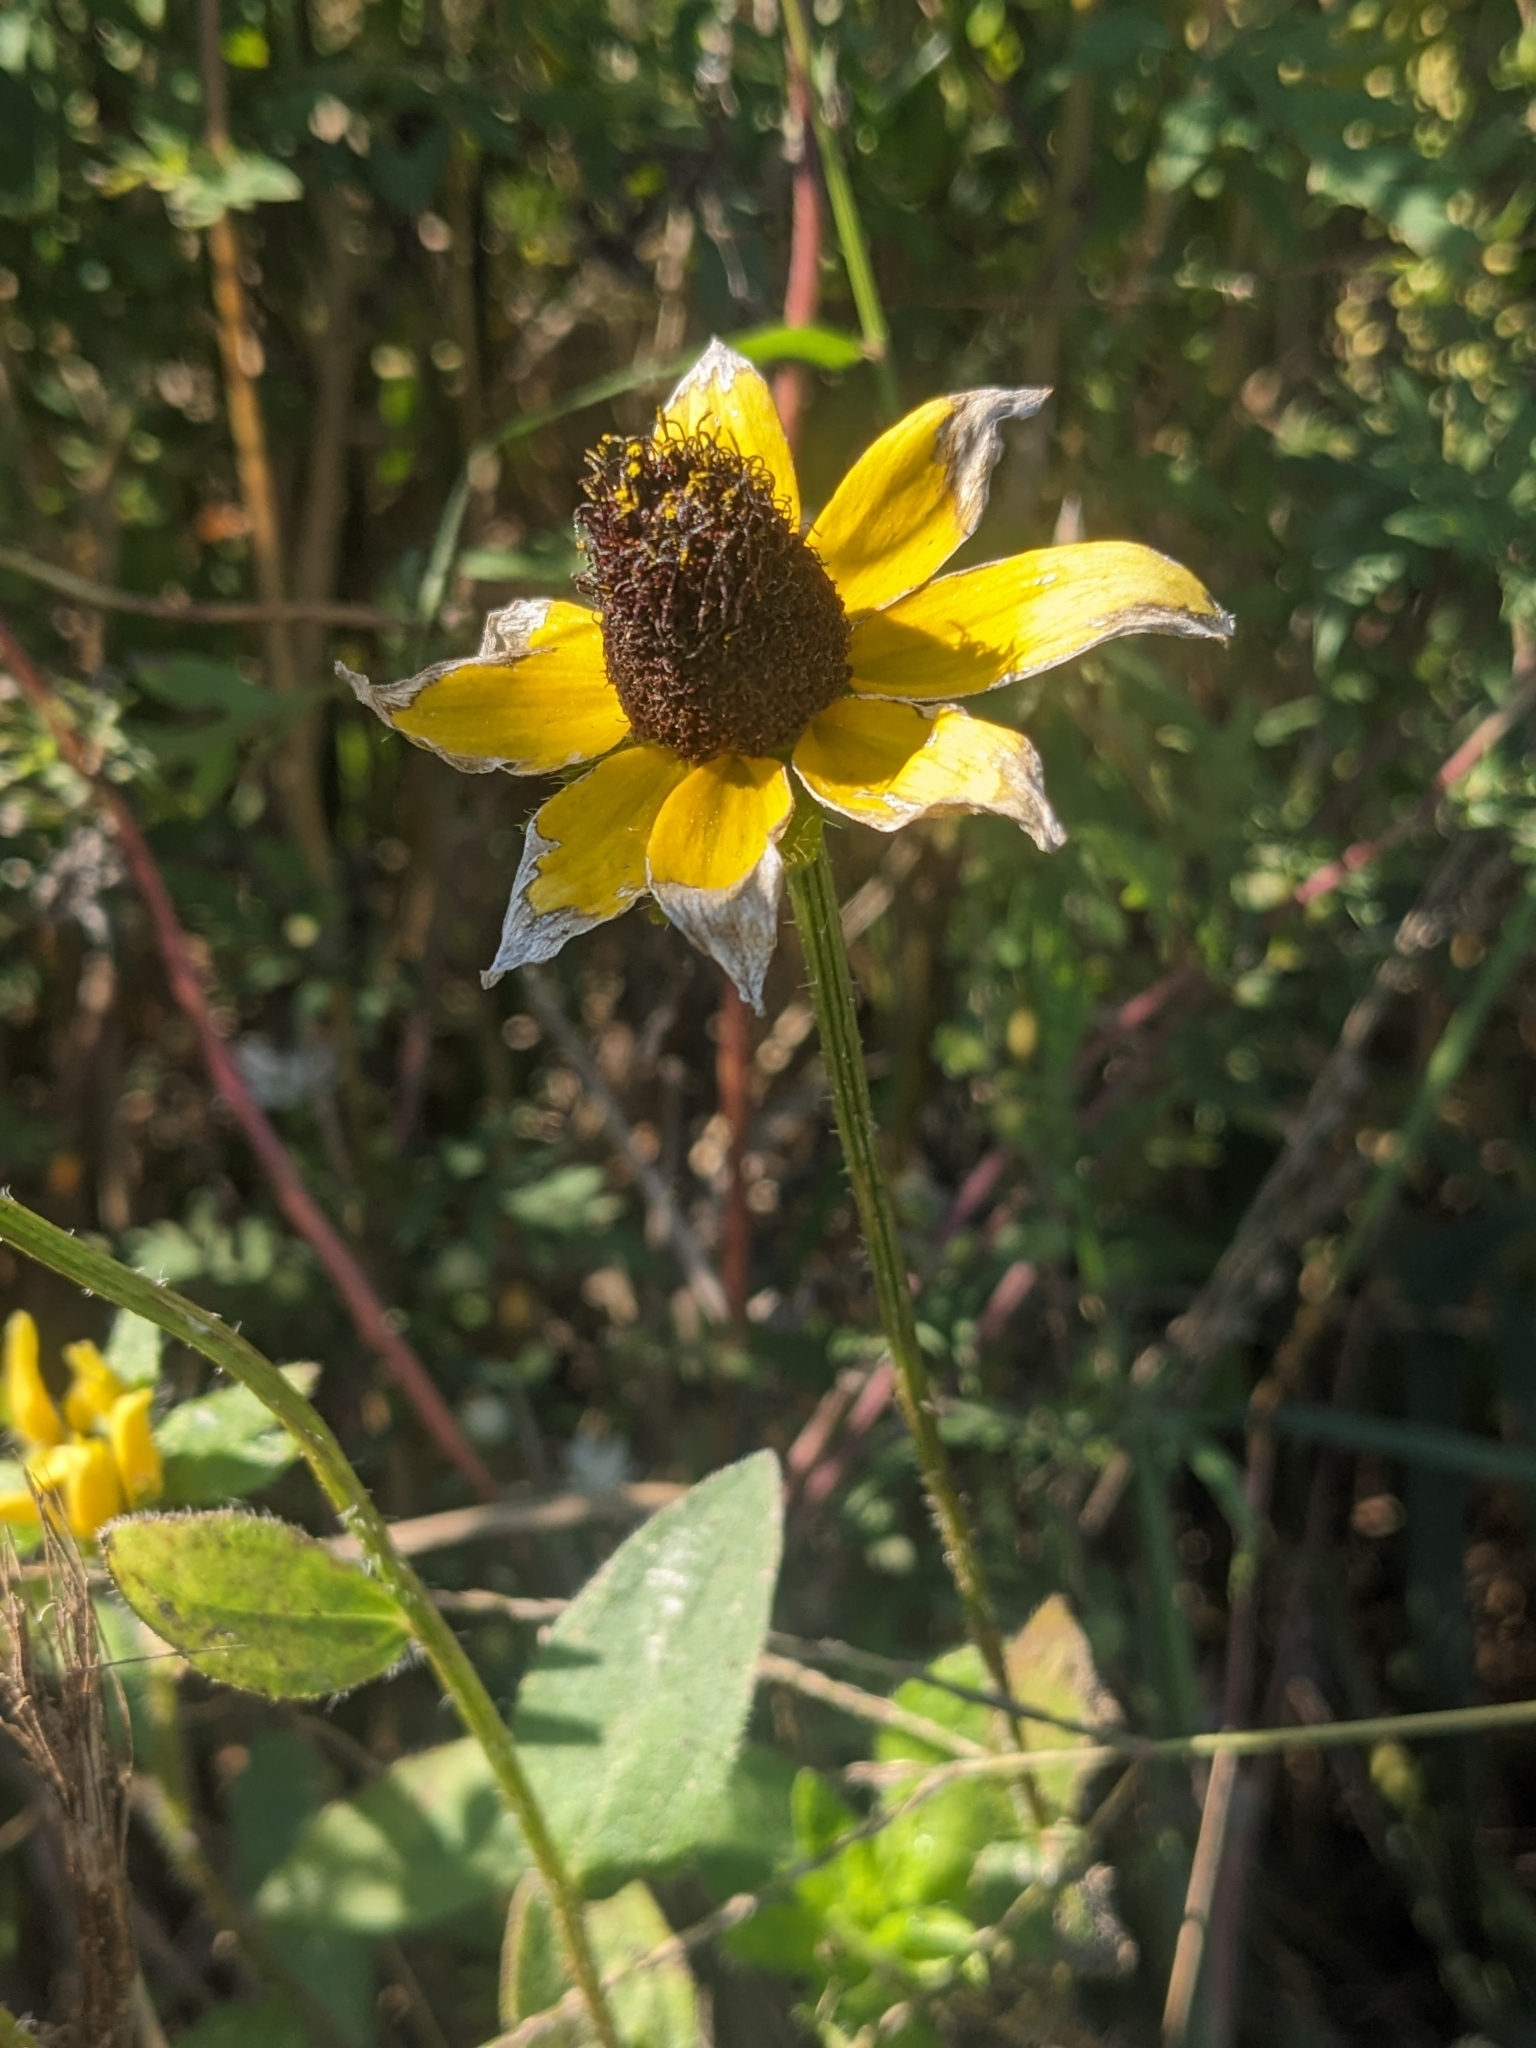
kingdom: Plantae
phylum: Tracheophyta
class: Magnoliopsida
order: Asterales
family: Asteraceae
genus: Rudbeckia
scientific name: Rudbeckia hirta
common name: Black-eyed-susan
